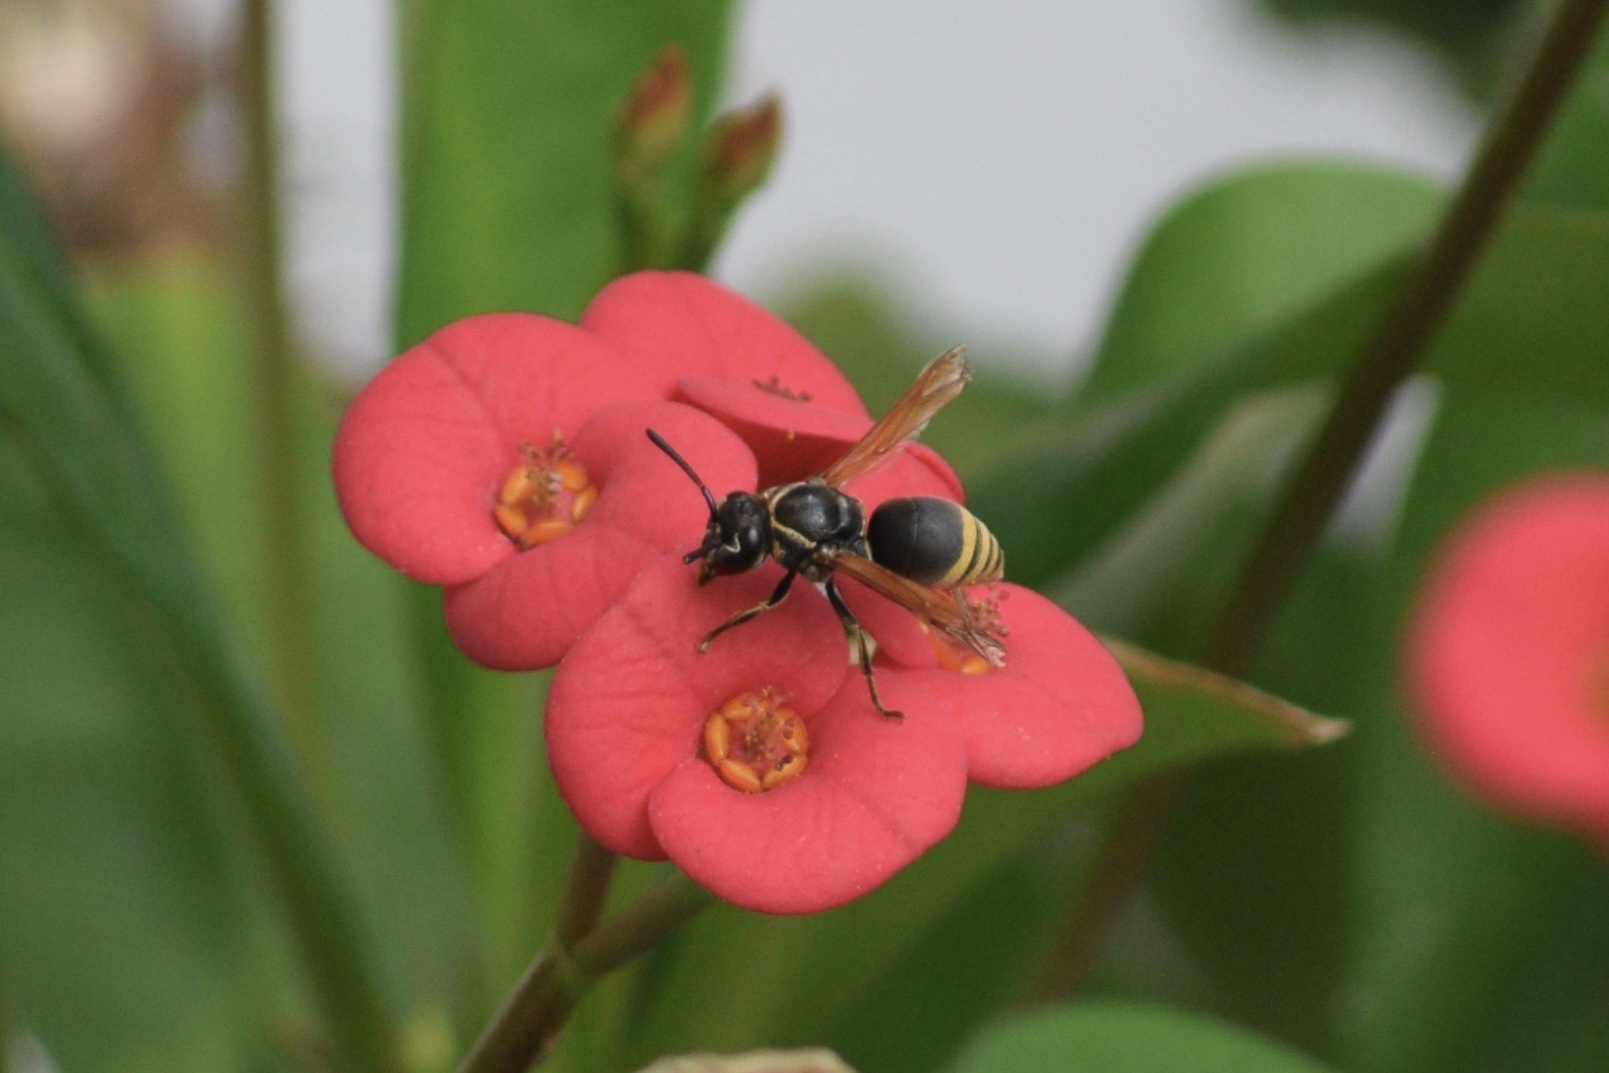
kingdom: Animalia
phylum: Arthropoda
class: Insecta
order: Hymenoptera
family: Eumenidae
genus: Pachodynerus
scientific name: Pachodynerus nasidens
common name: Key hole wasp
